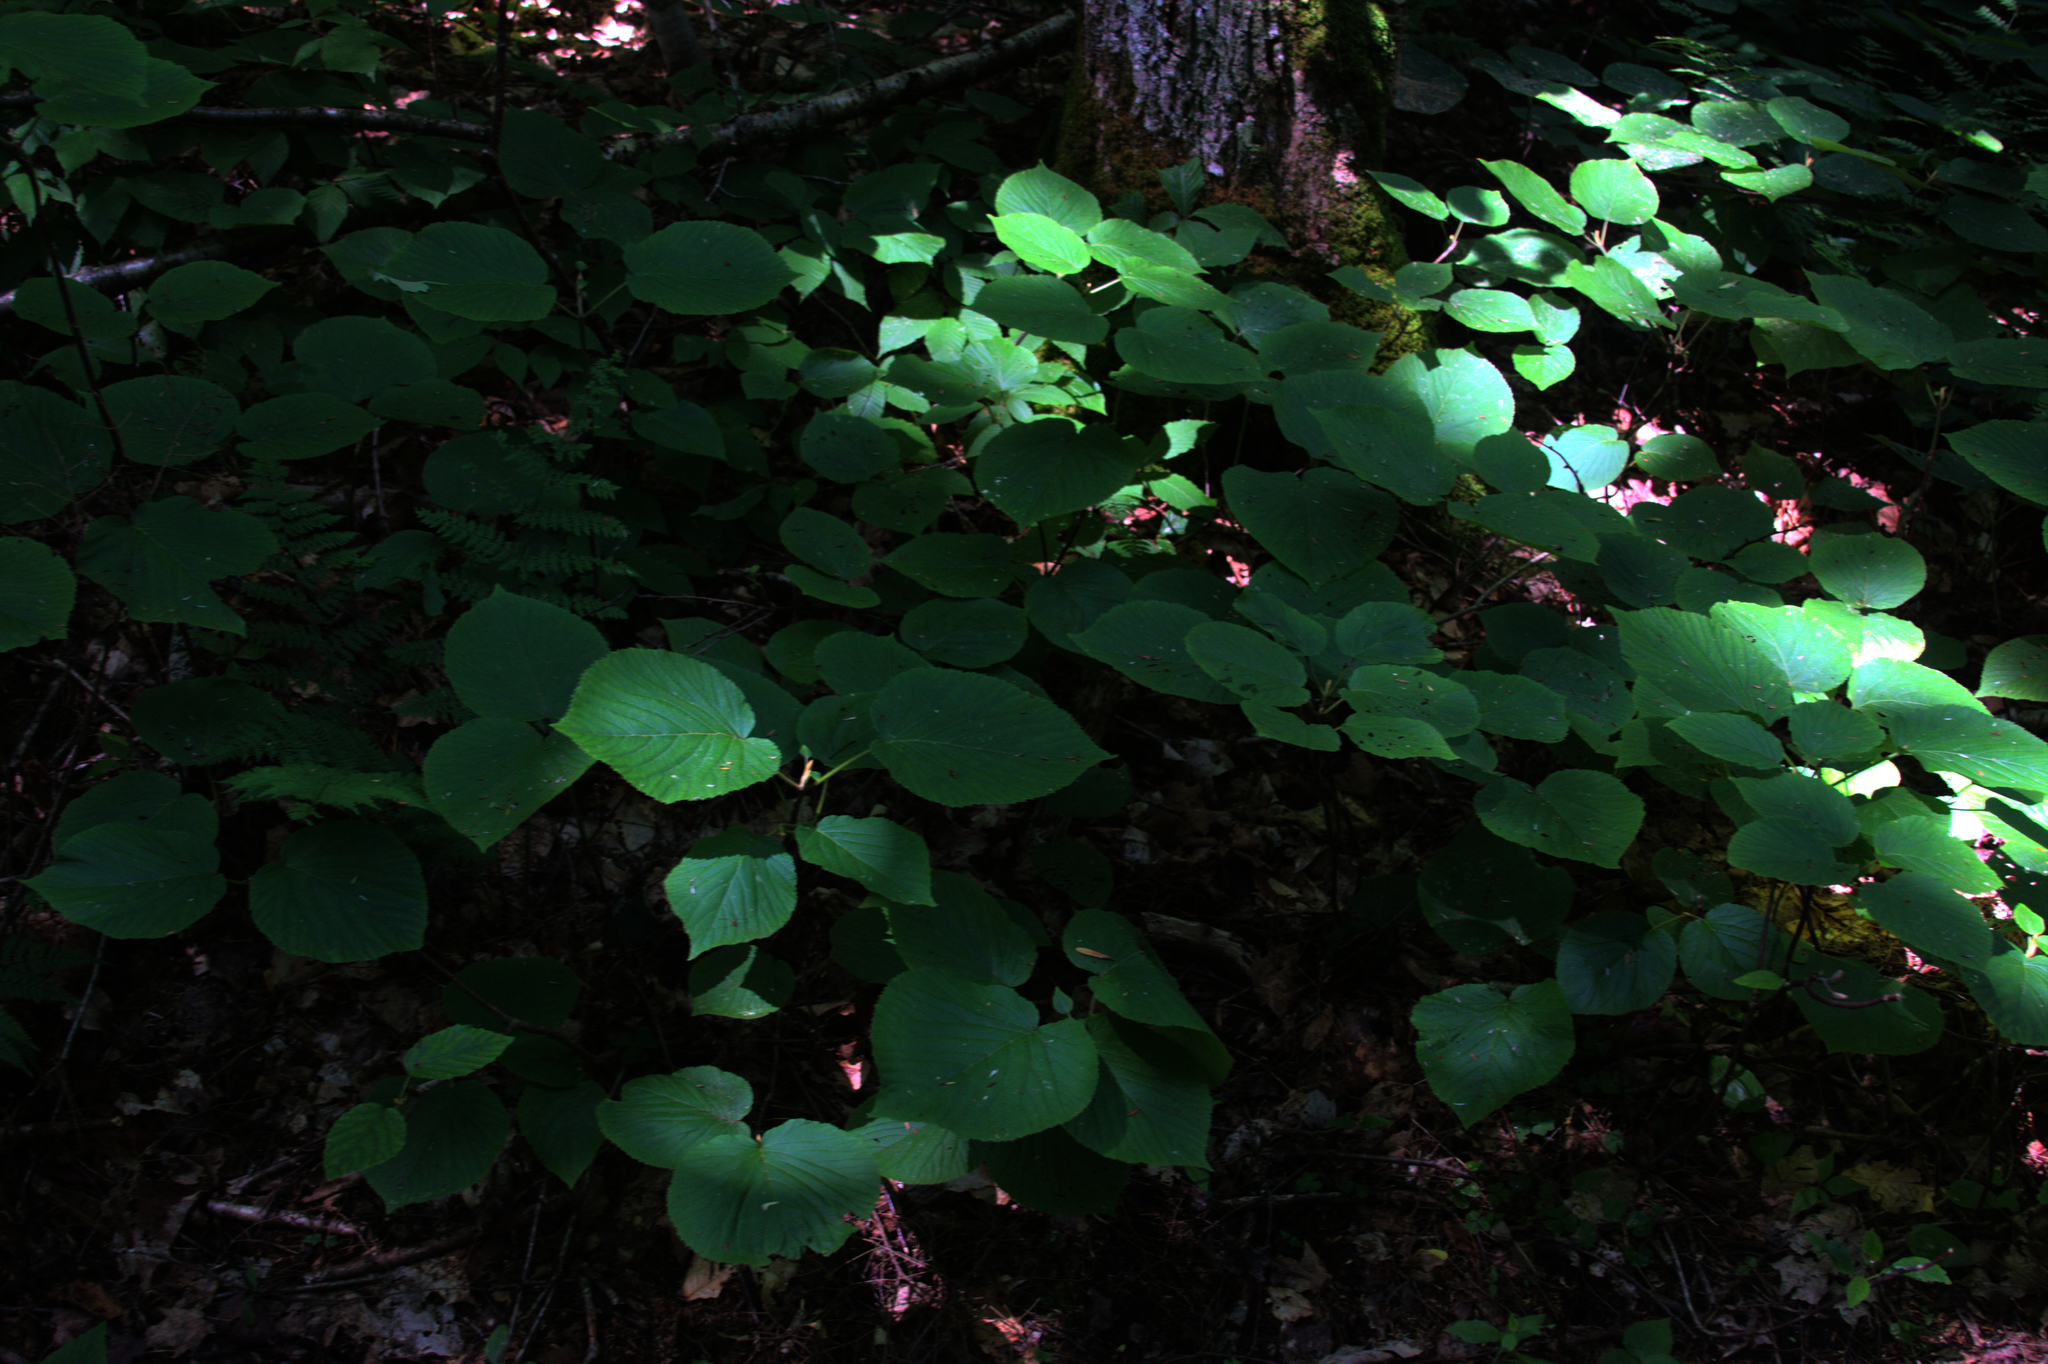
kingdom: Plantae
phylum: Tracheophyta
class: Magnoliopsida
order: Dipsacales
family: Viburnaceae
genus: Viburnum
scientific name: Viburnum lantanoides
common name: Hobblebush
